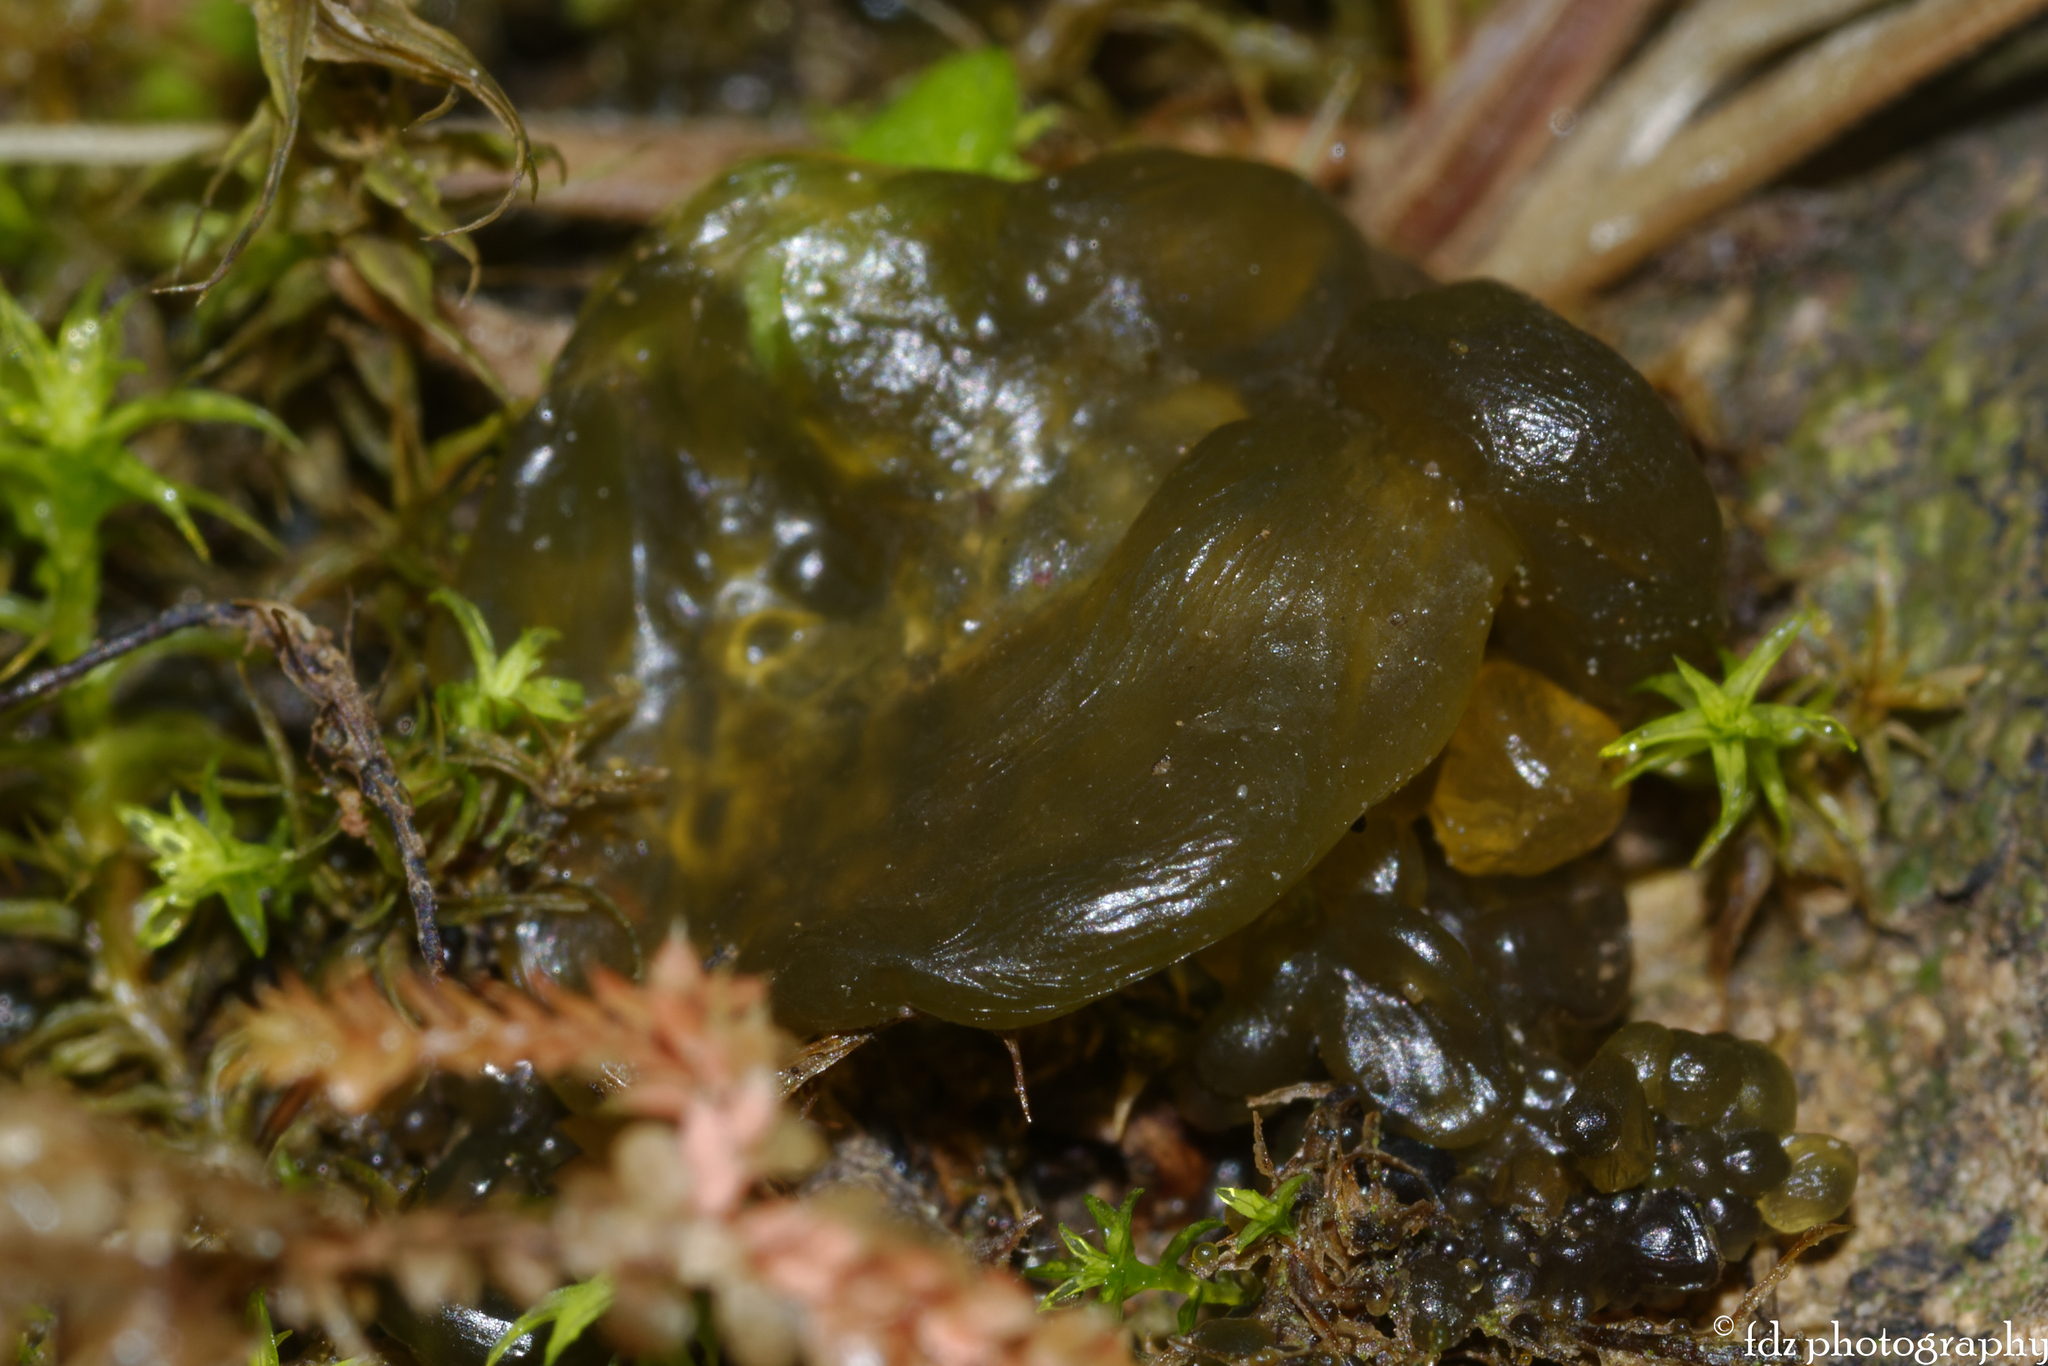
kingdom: Bacteria
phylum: Cyanobacteria
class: Cyanobacteriia
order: Cyanobacteriales
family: Nostocaceae
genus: Nostoc
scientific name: Nostoc commune
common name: Star jelly
